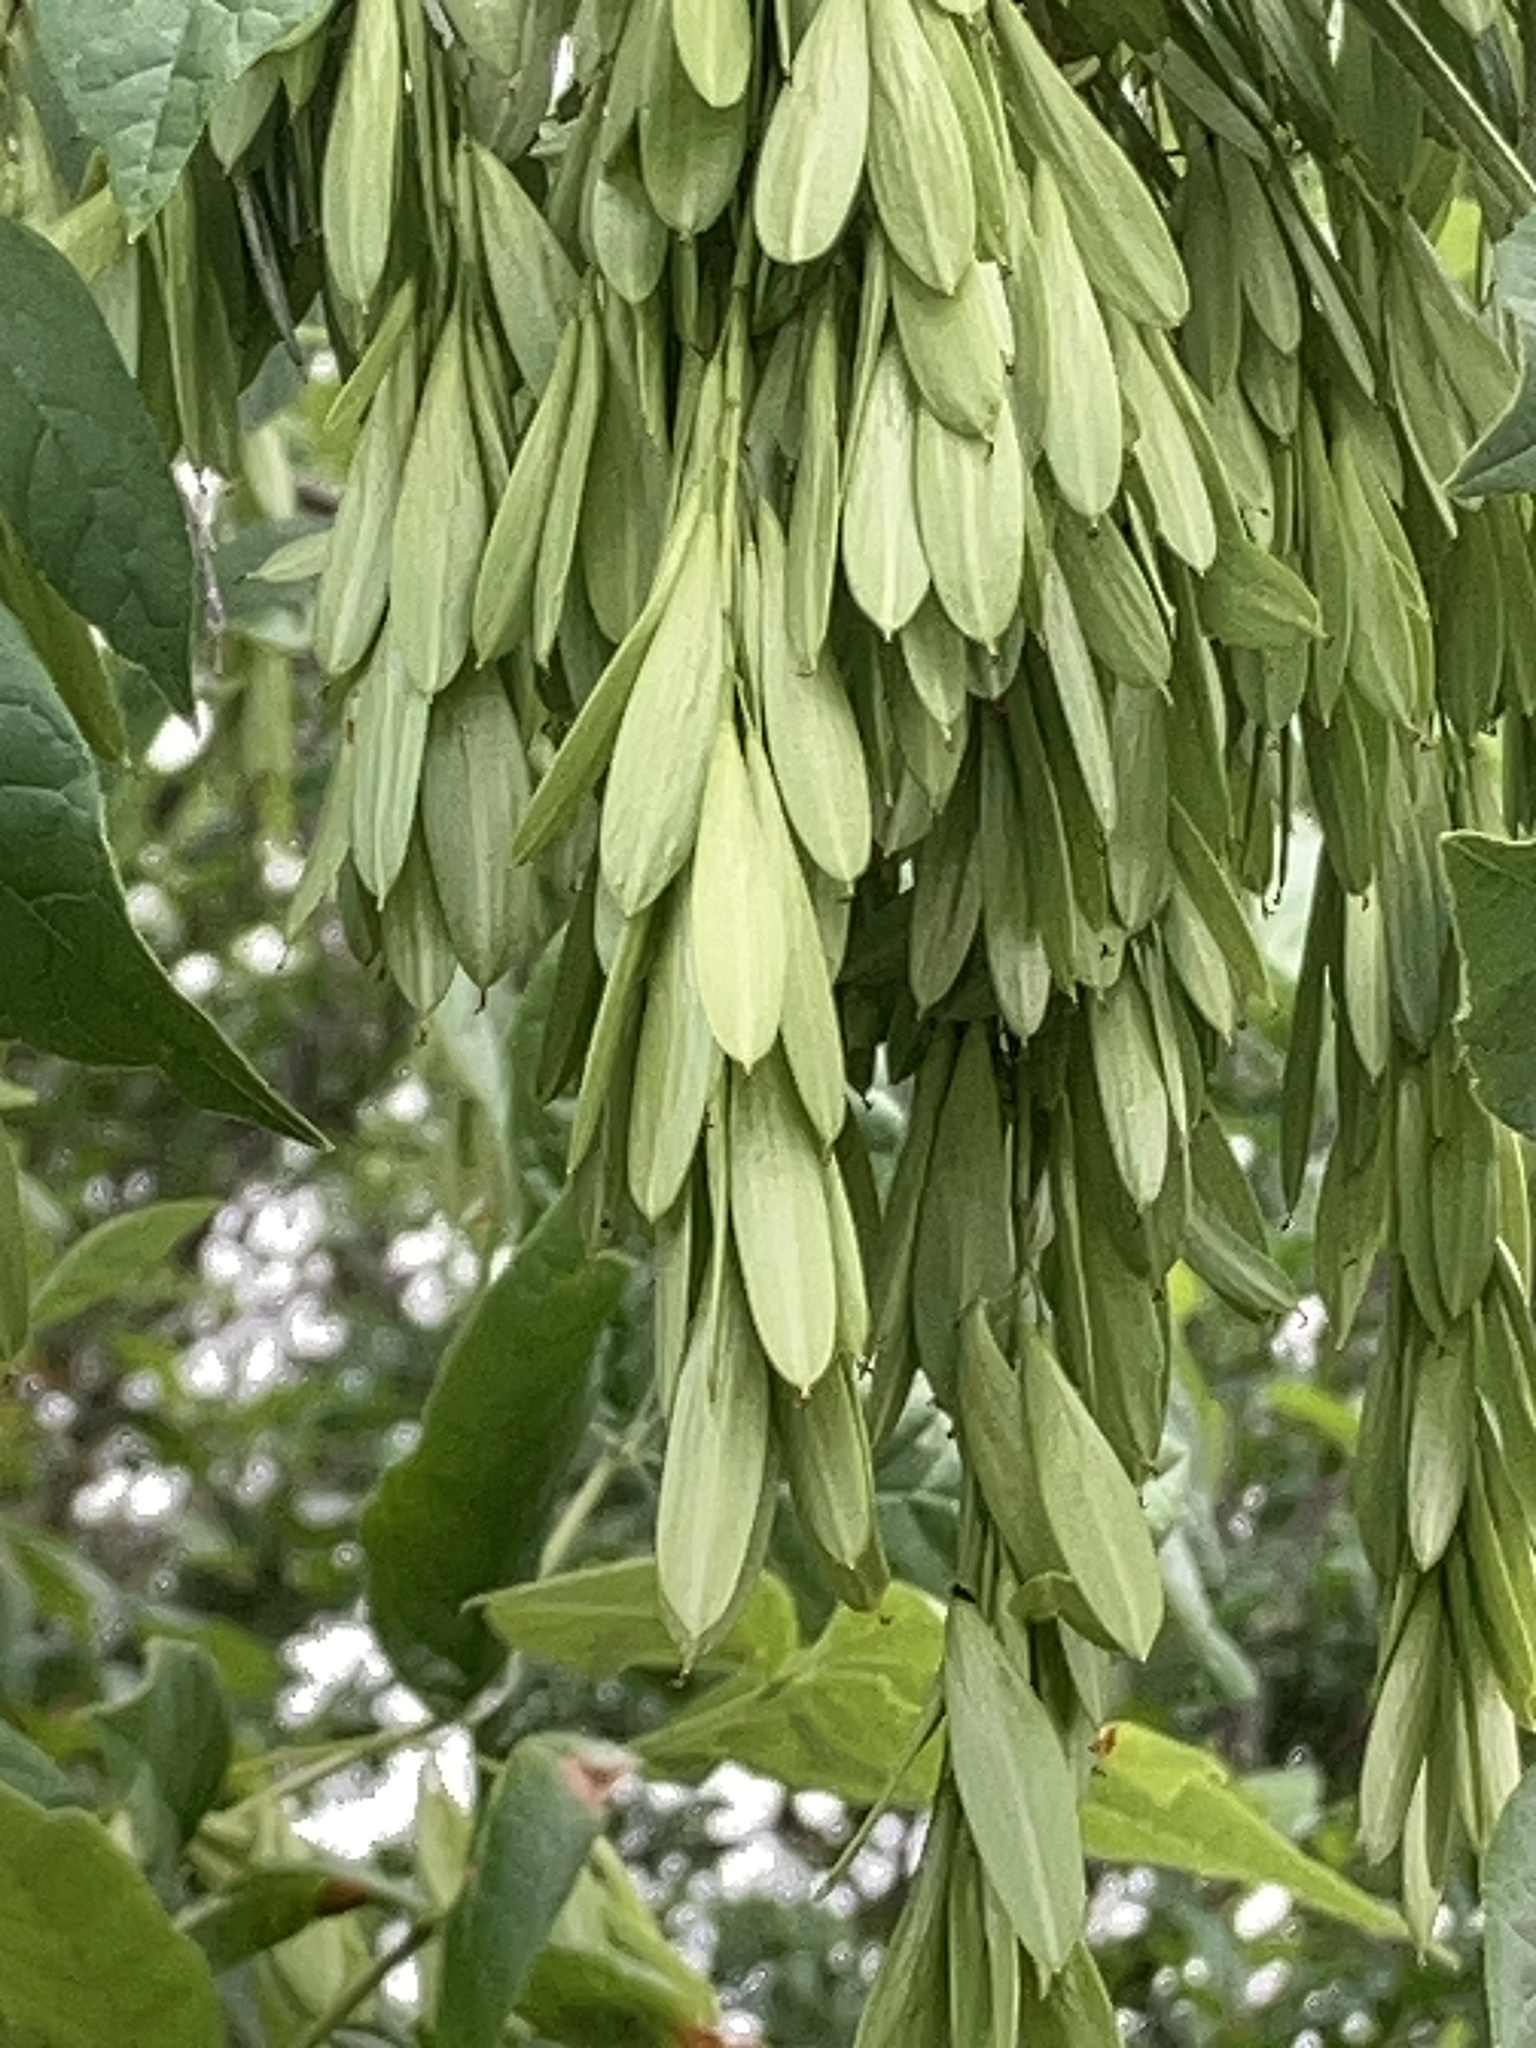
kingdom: Plantae
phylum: Tracheophyta
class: Magnoliopsida
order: Lamiales
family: Oleaceae
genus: Fraxinus
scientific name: Fraxinus latifolia
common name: Oregon ash
